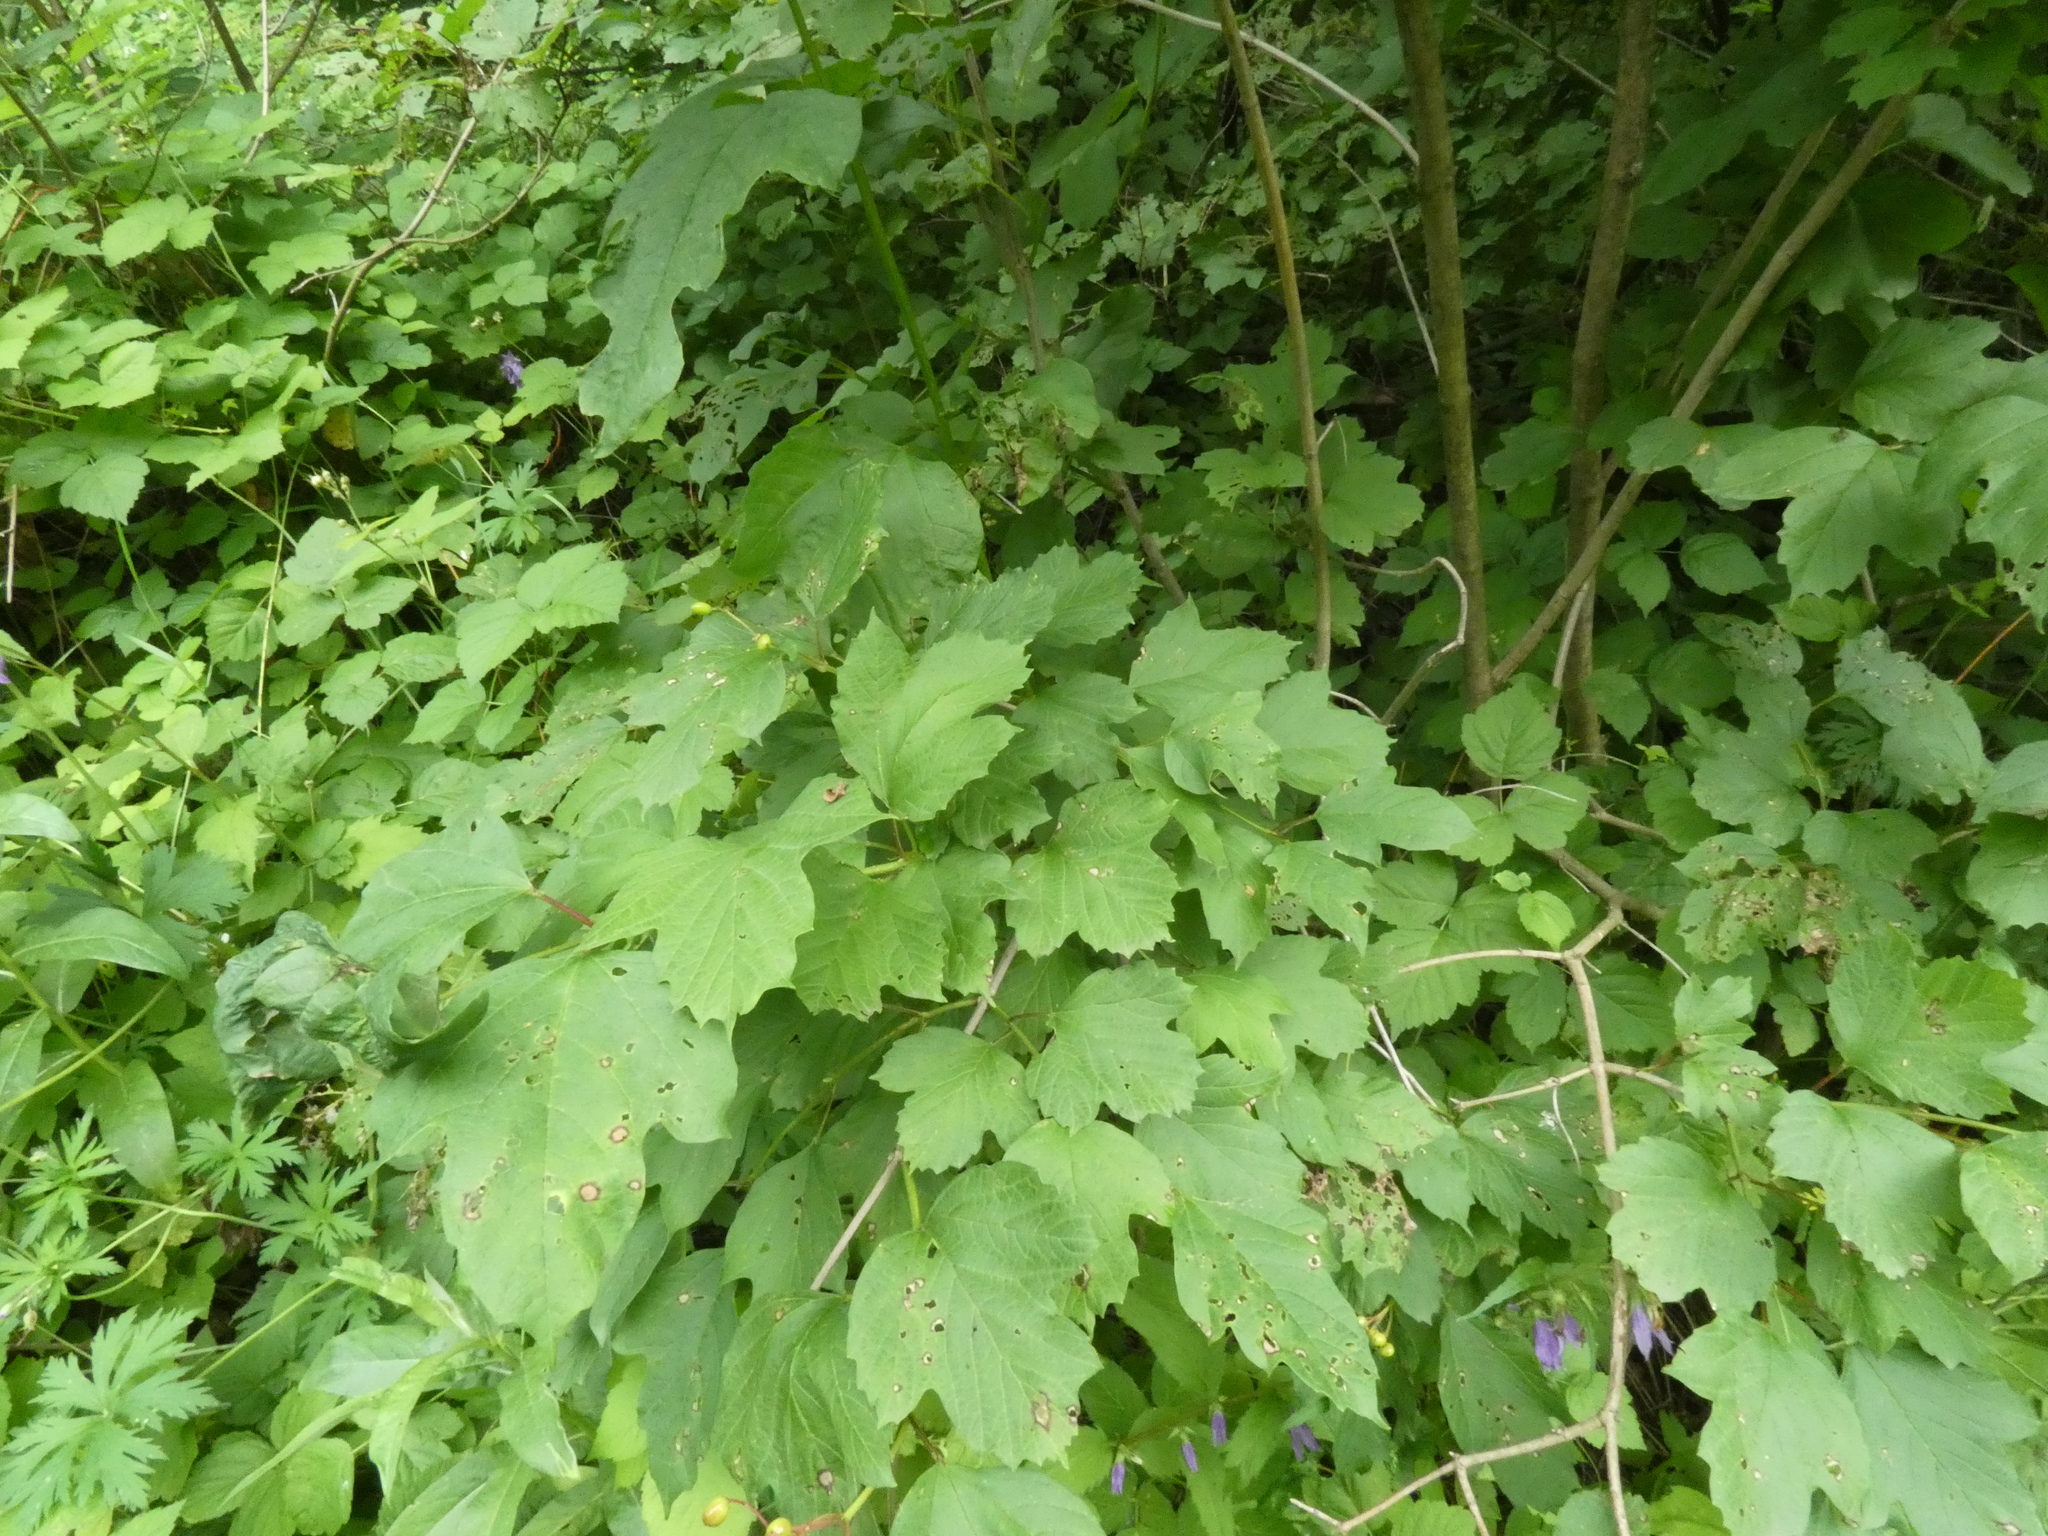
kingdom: Plantae
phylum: Tracheophyta
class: Magnoliopsida
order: Dipsacales
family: Viburnaceae
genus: Viburnum
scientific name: Viburnum opulus
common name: Guelder-rose
